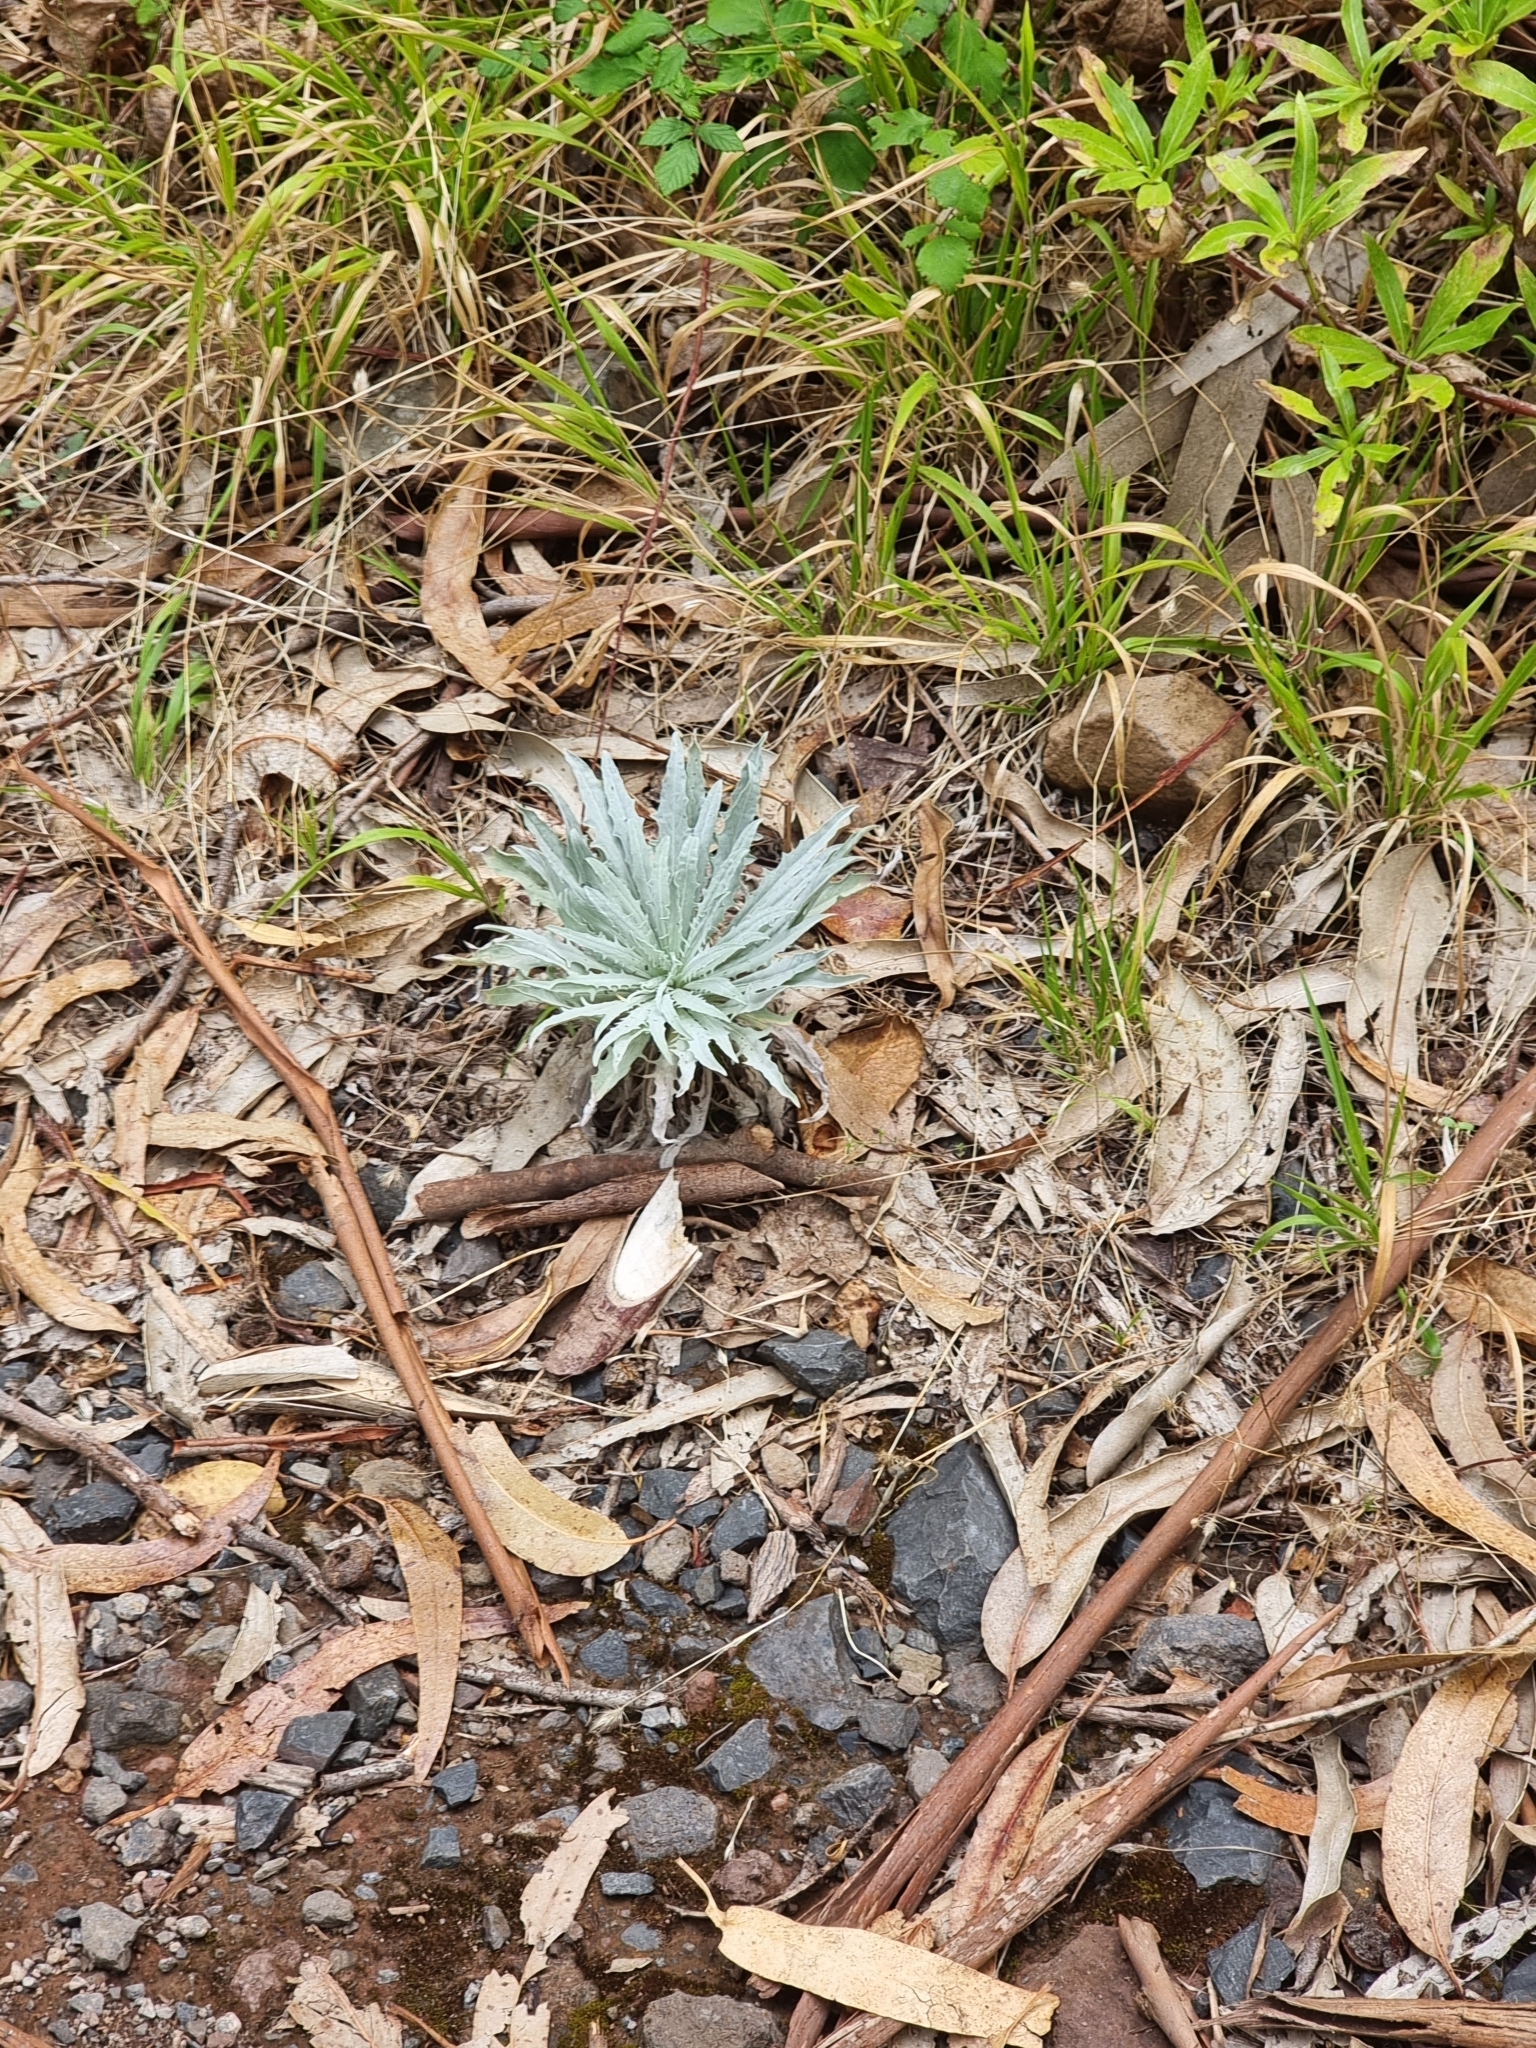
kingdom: Plantae
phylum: Tracheophyta
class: Magnoliopsida
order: Asterales
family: Asteraceae
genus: Andryala
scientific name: Andryala glandulosa
